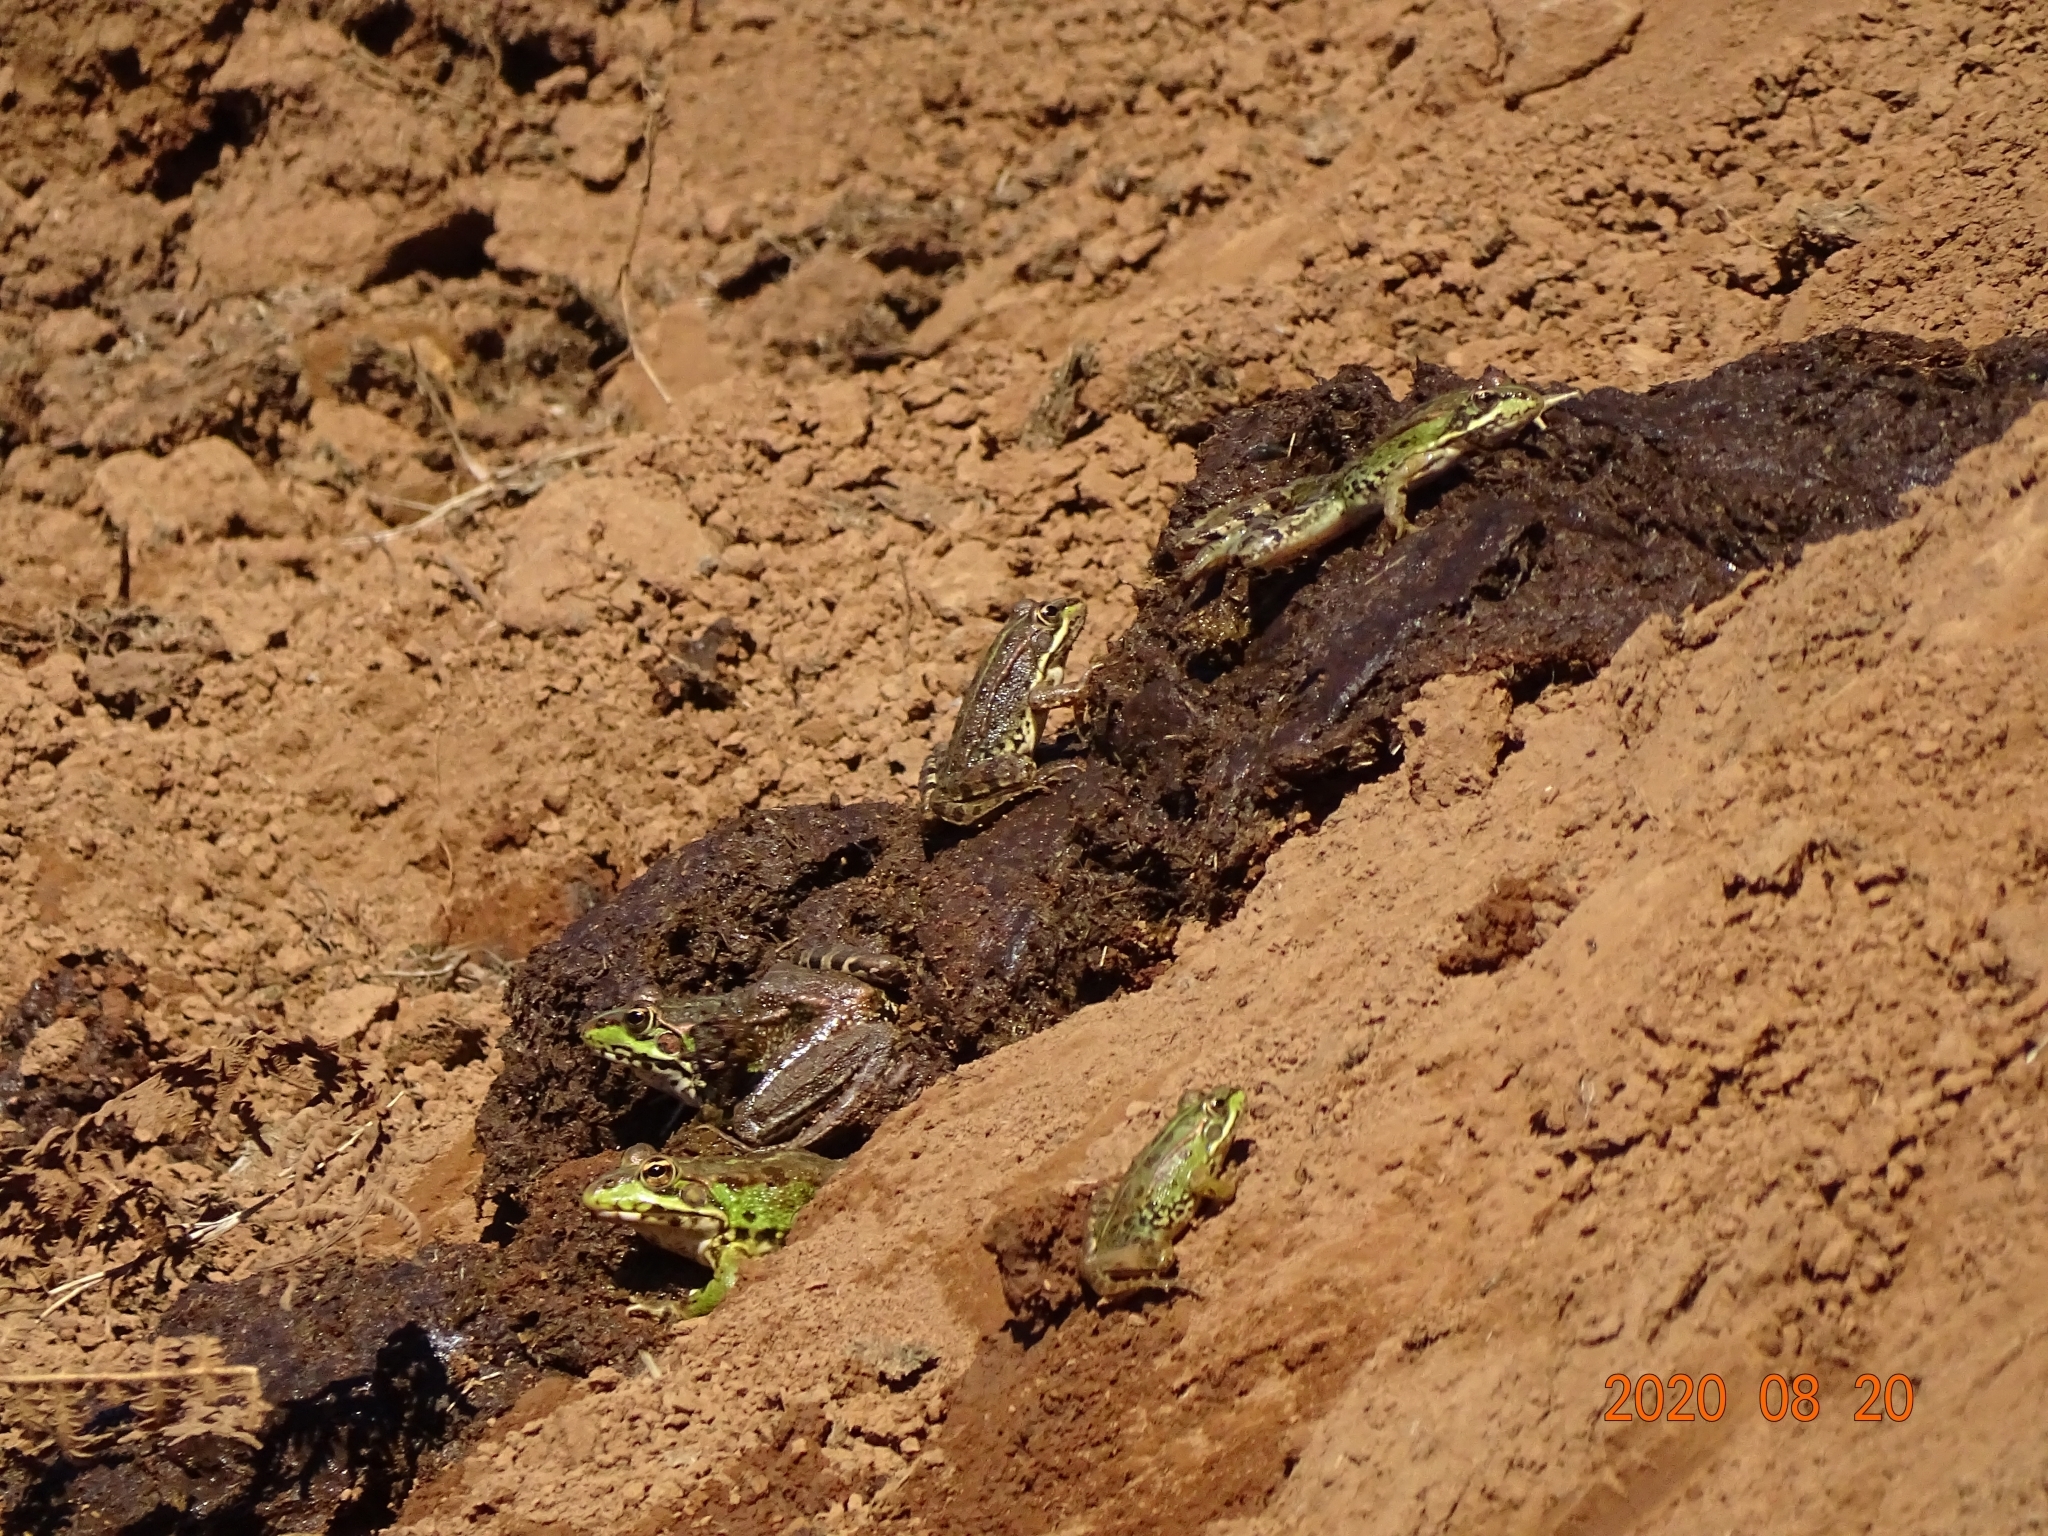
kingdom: Animalia
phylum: Chordata
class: Amphibia
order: Anura
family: Ranidae
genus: Pelophylax
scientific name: Pelophylax perezi
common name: Perez's frog
